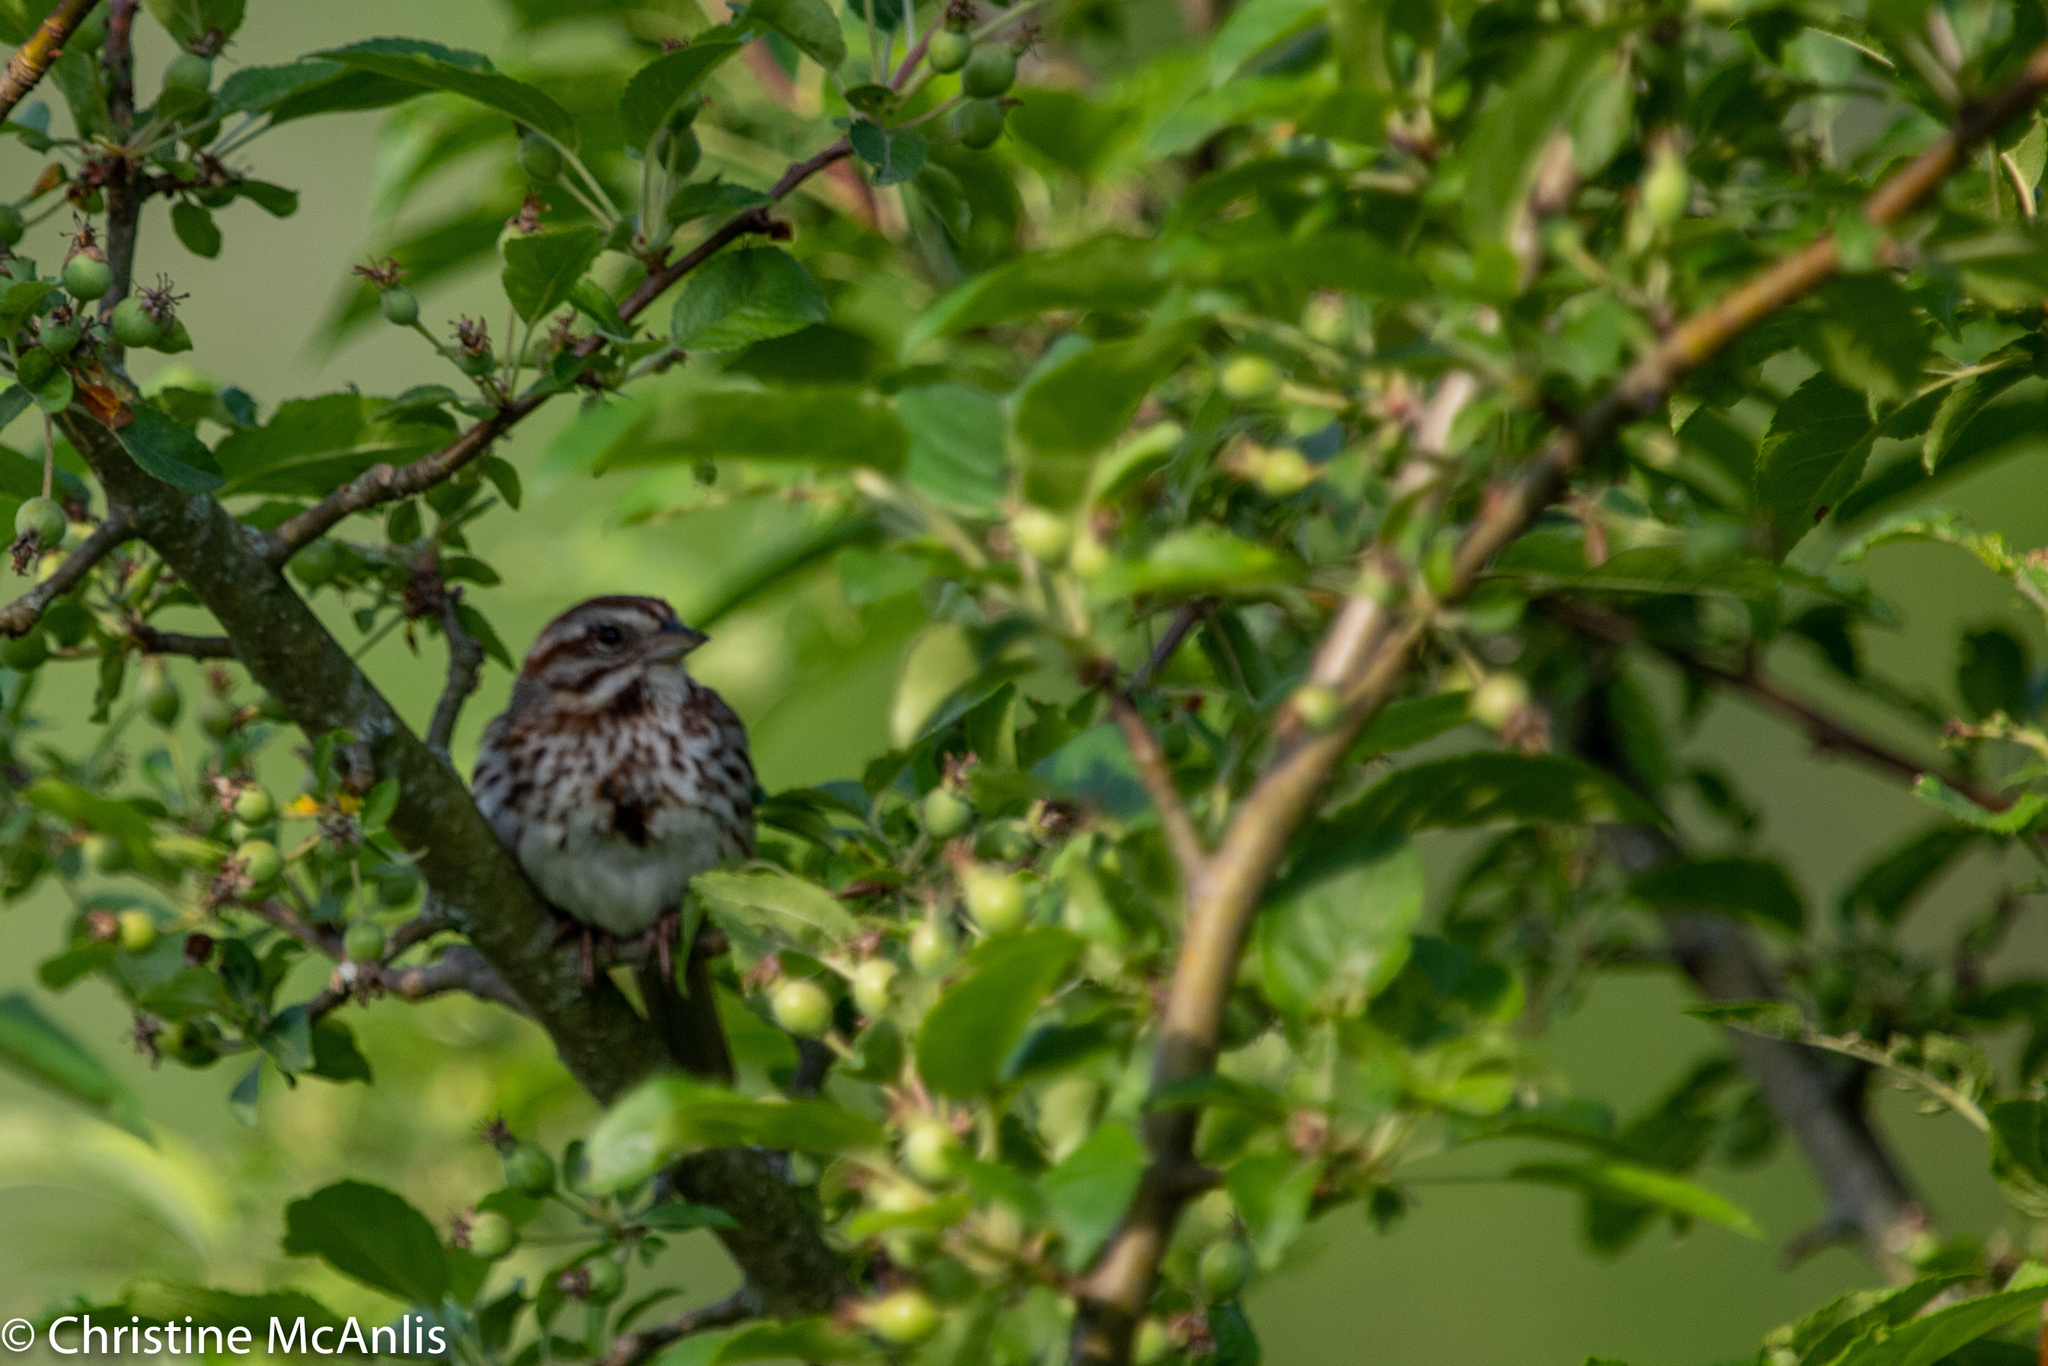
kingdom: Animalia
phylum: Chordata
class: Aves
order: Passeriformes
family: Passerellidae
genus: Melospiza
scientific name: Melospiza melodia
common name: Song sparrow
